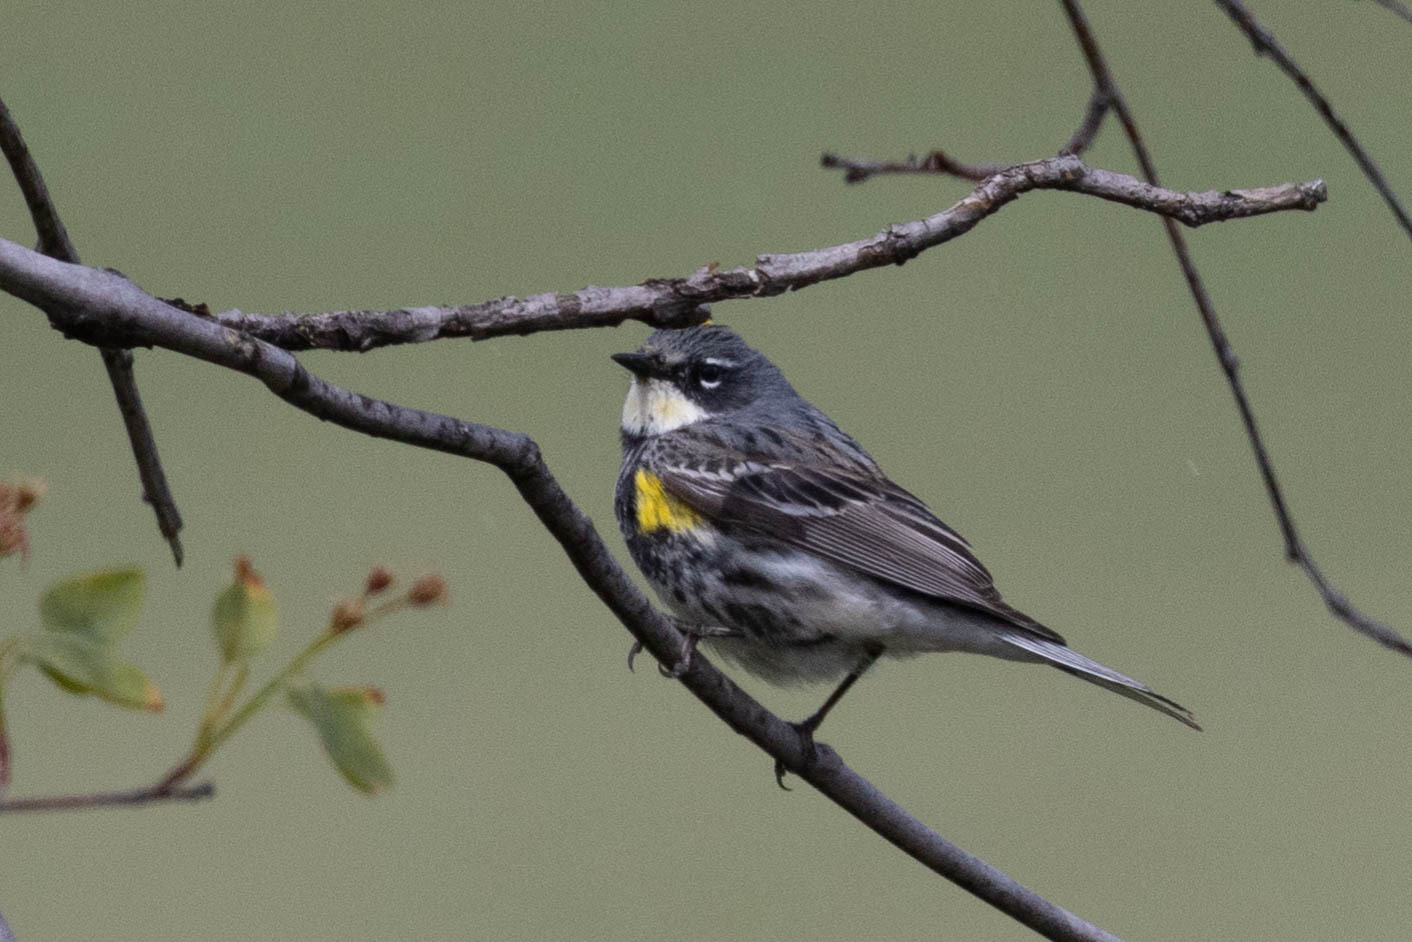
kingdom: Animalia
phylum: Chordata
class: Aves
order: Passeriformes
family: Parulidae
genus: Setophaga
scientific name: Setophaga coronata
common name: Myrtle warbler
